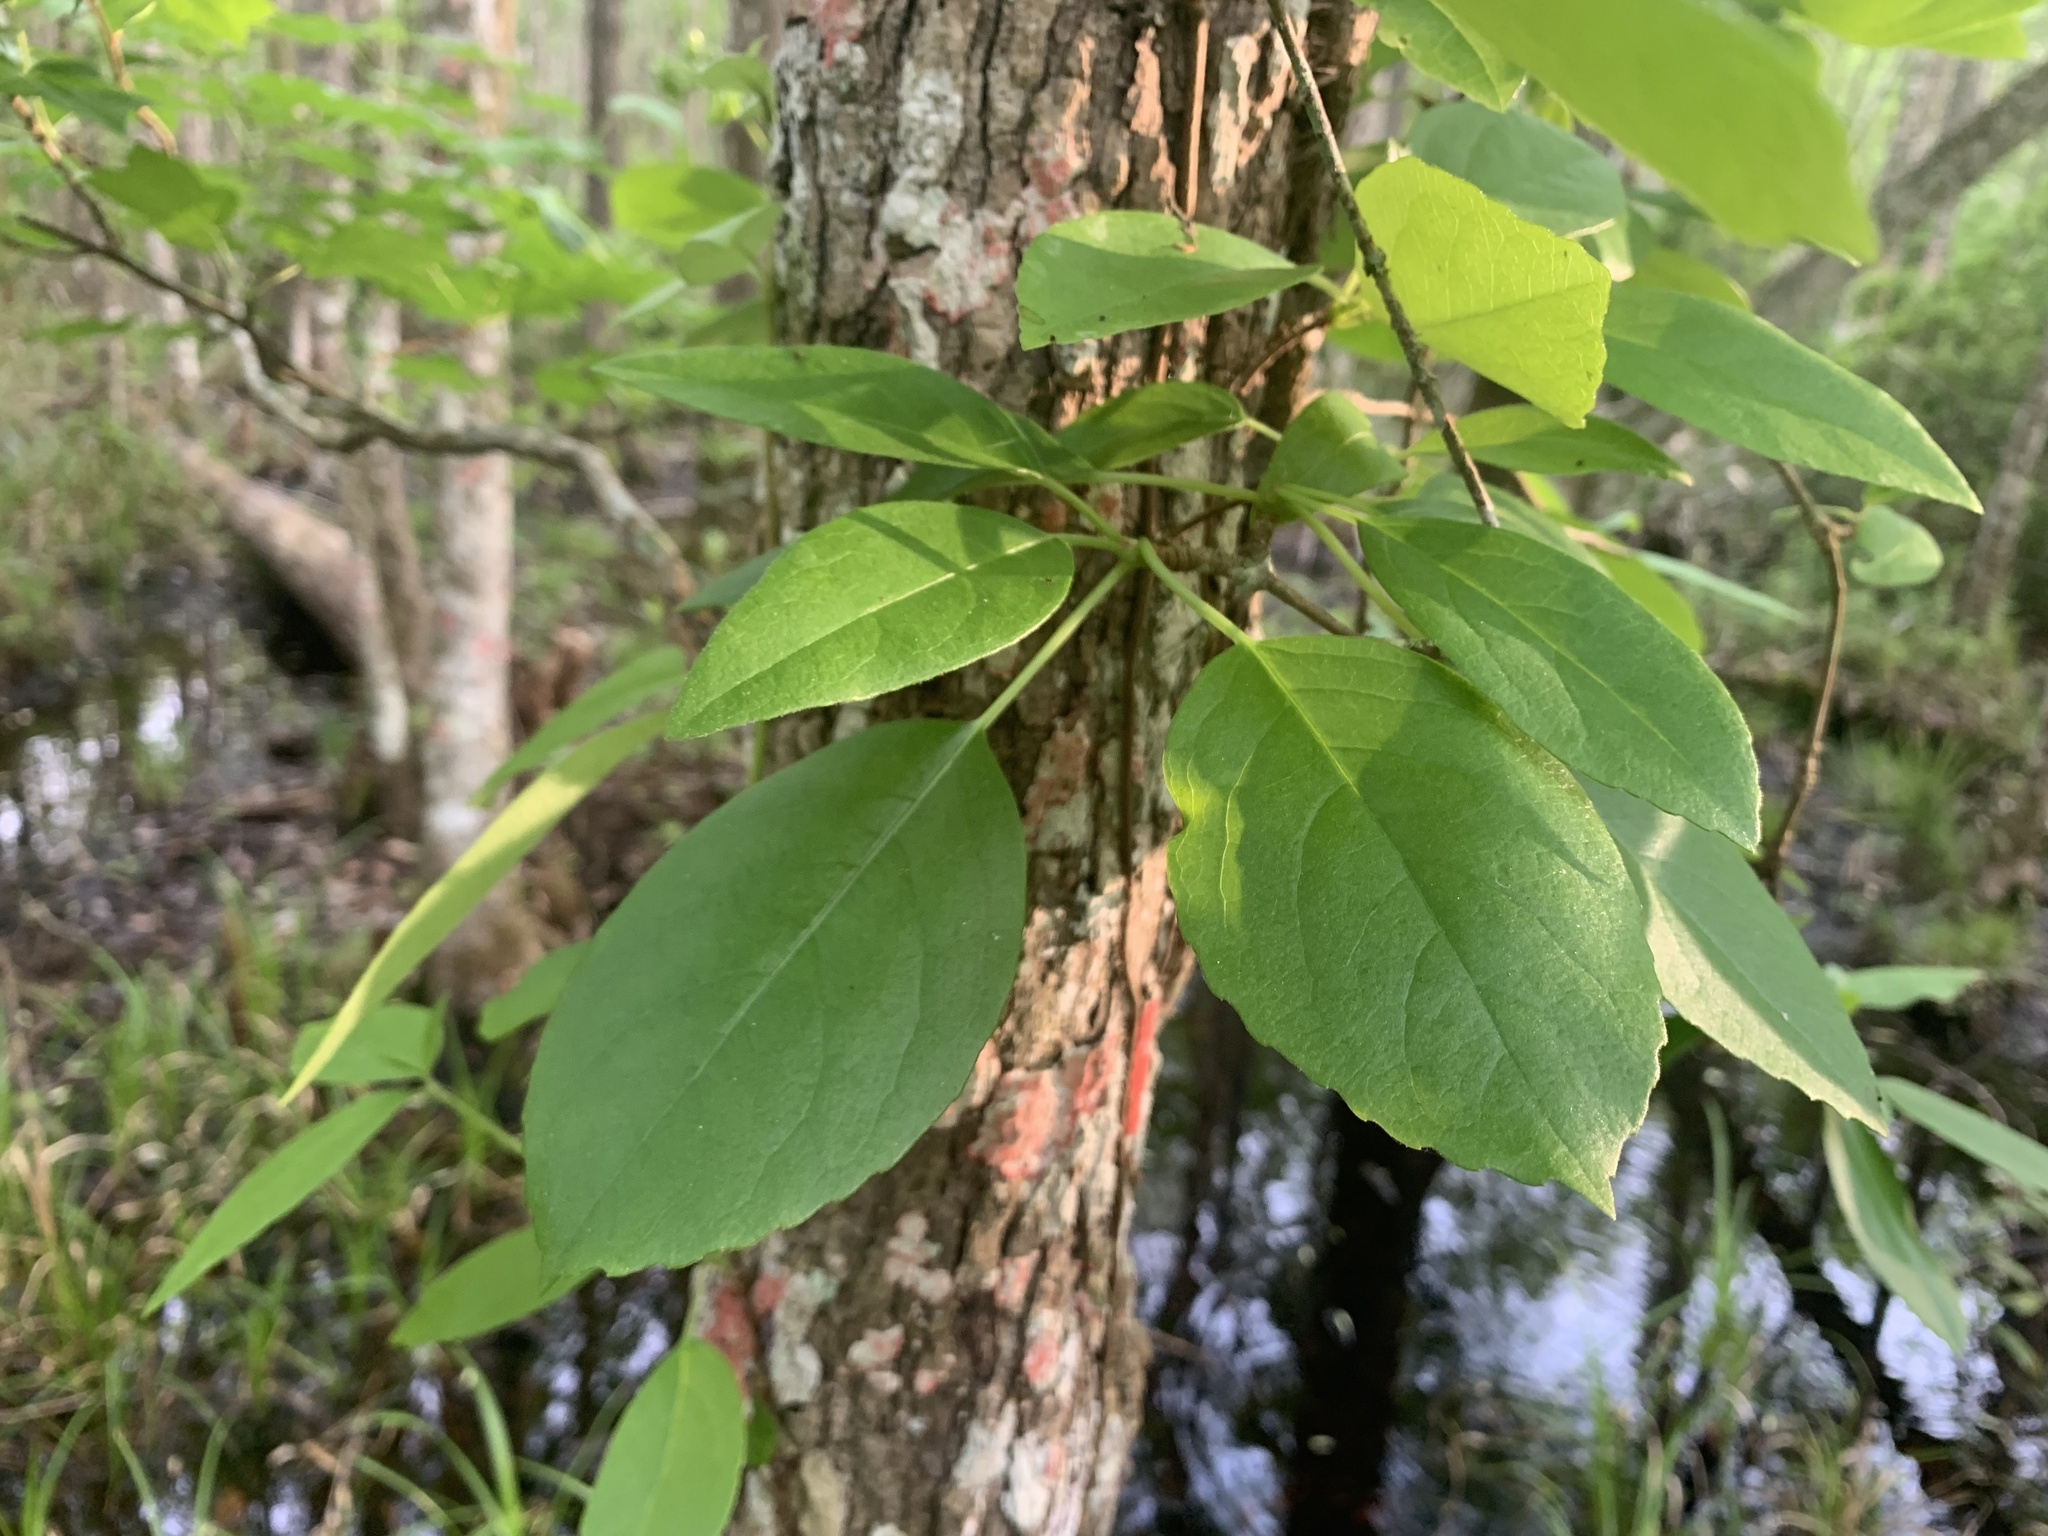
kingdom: Plantae
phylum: Tracheophyta
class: Magnoliopsida
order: Cornales
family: Hydrangeaceae
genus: Hydrangea
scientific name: Hydrangea barbara
